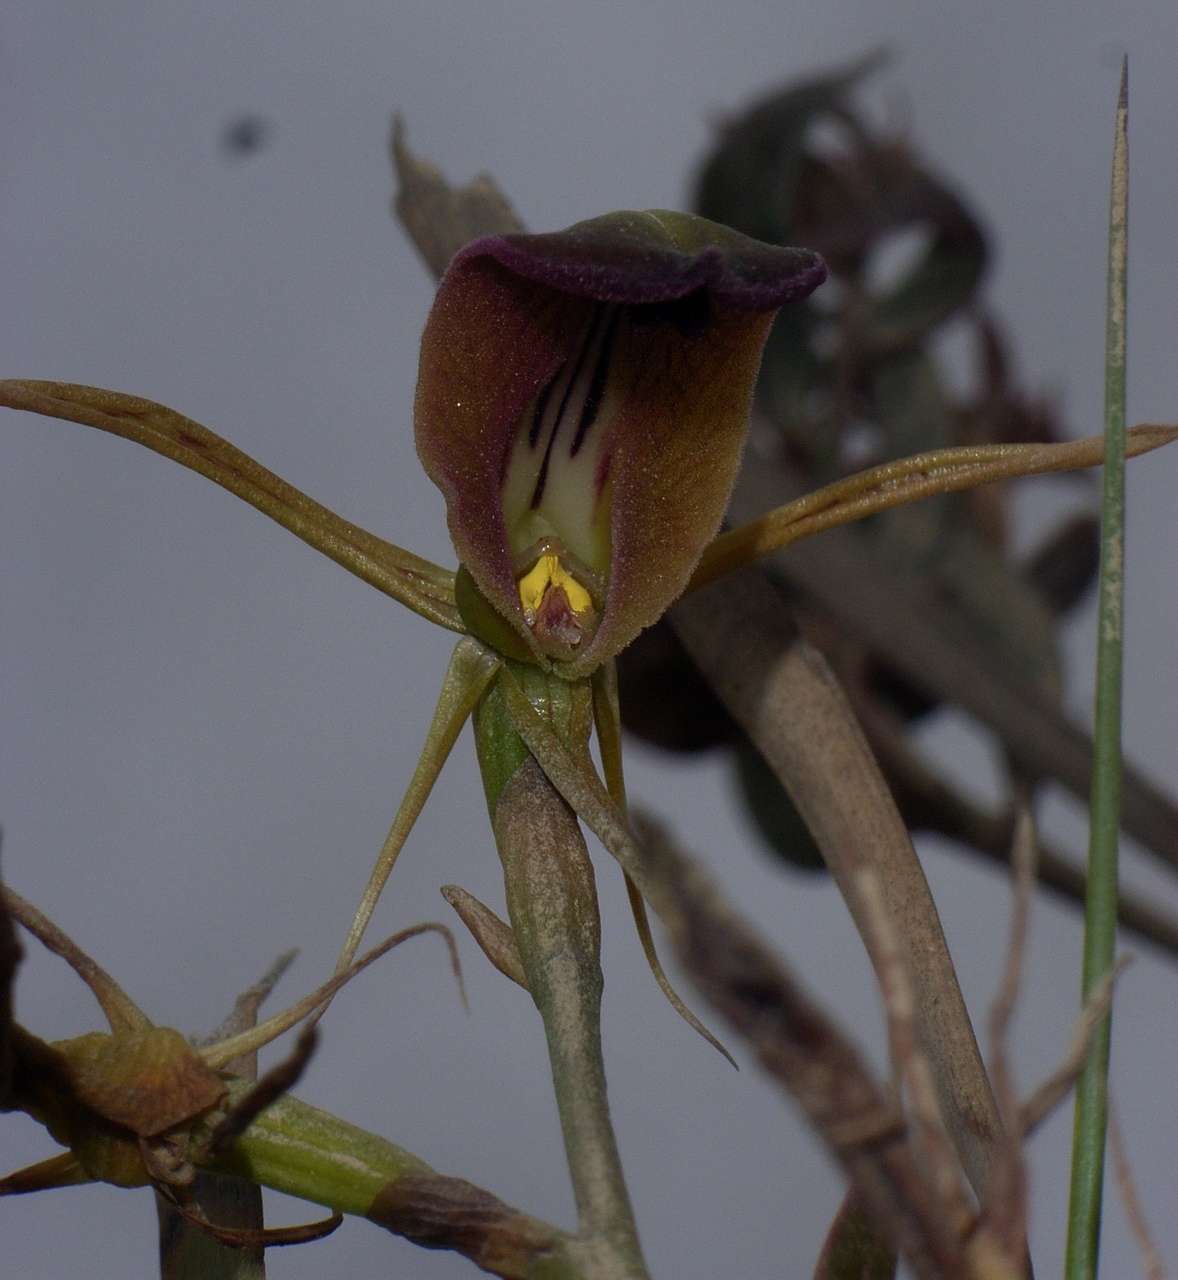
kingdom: Plantae
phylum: Tracheophyta
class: Liliopsida
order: Asparagales
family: Orchidaceae
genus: Cryptostylis
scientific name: Cryptostylis subulata
